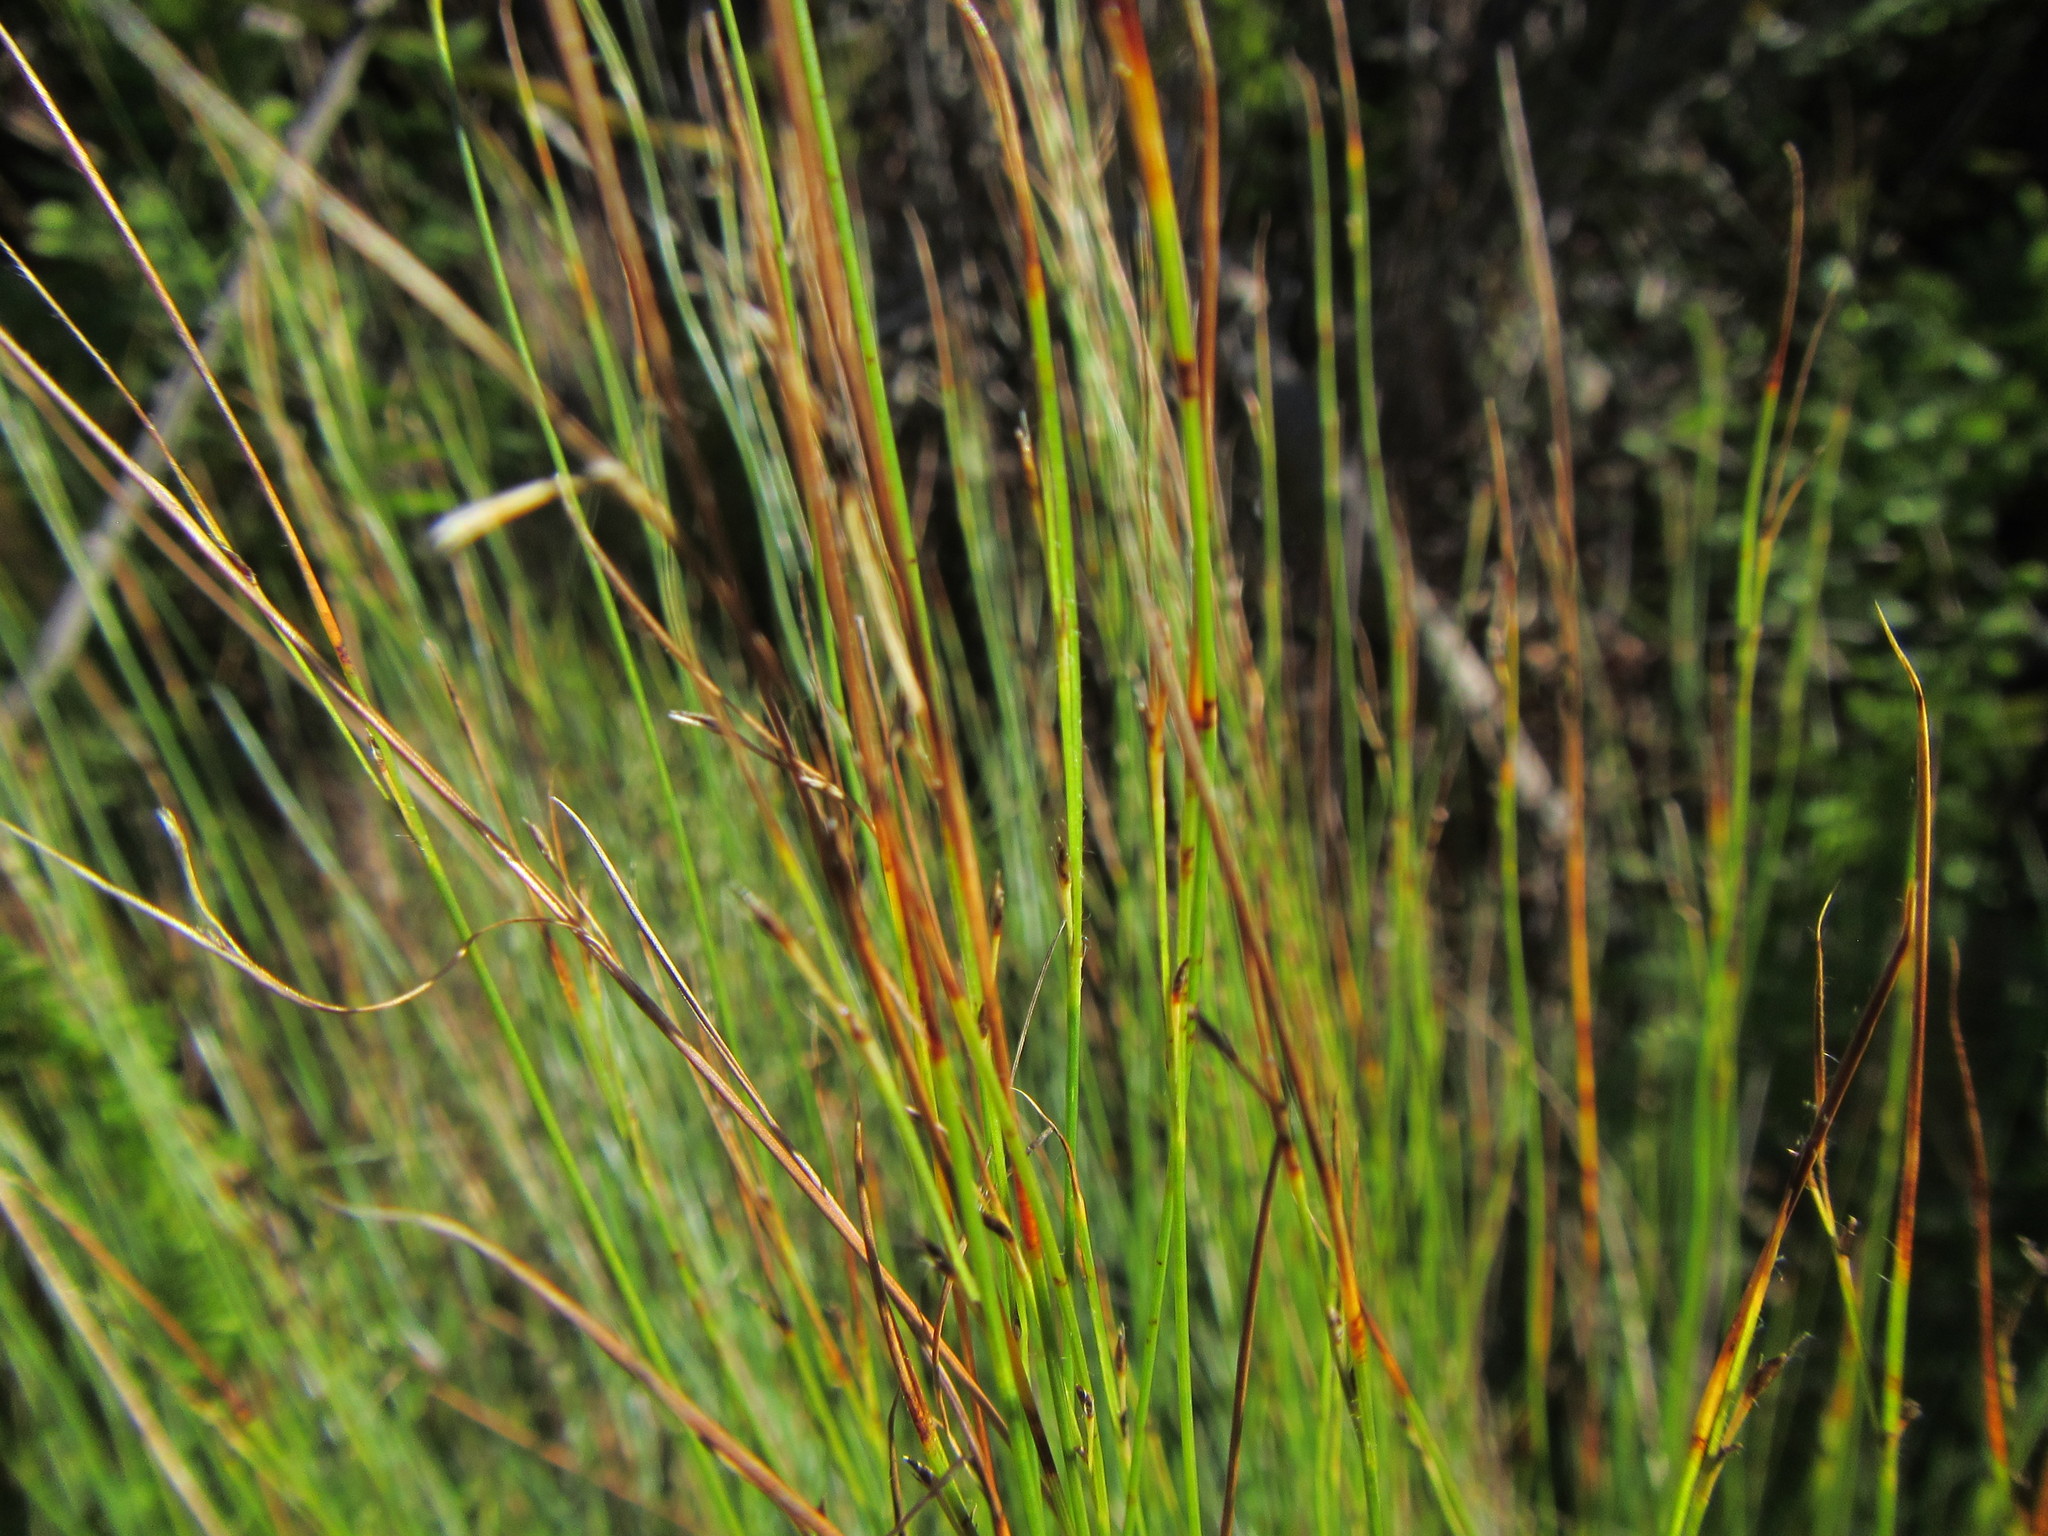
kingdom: Plantae
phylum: Tracheophyta
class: Liliopsida
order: Poales
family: Cyperaceae
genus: Schoenus
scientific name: Schoenus gracillimus
